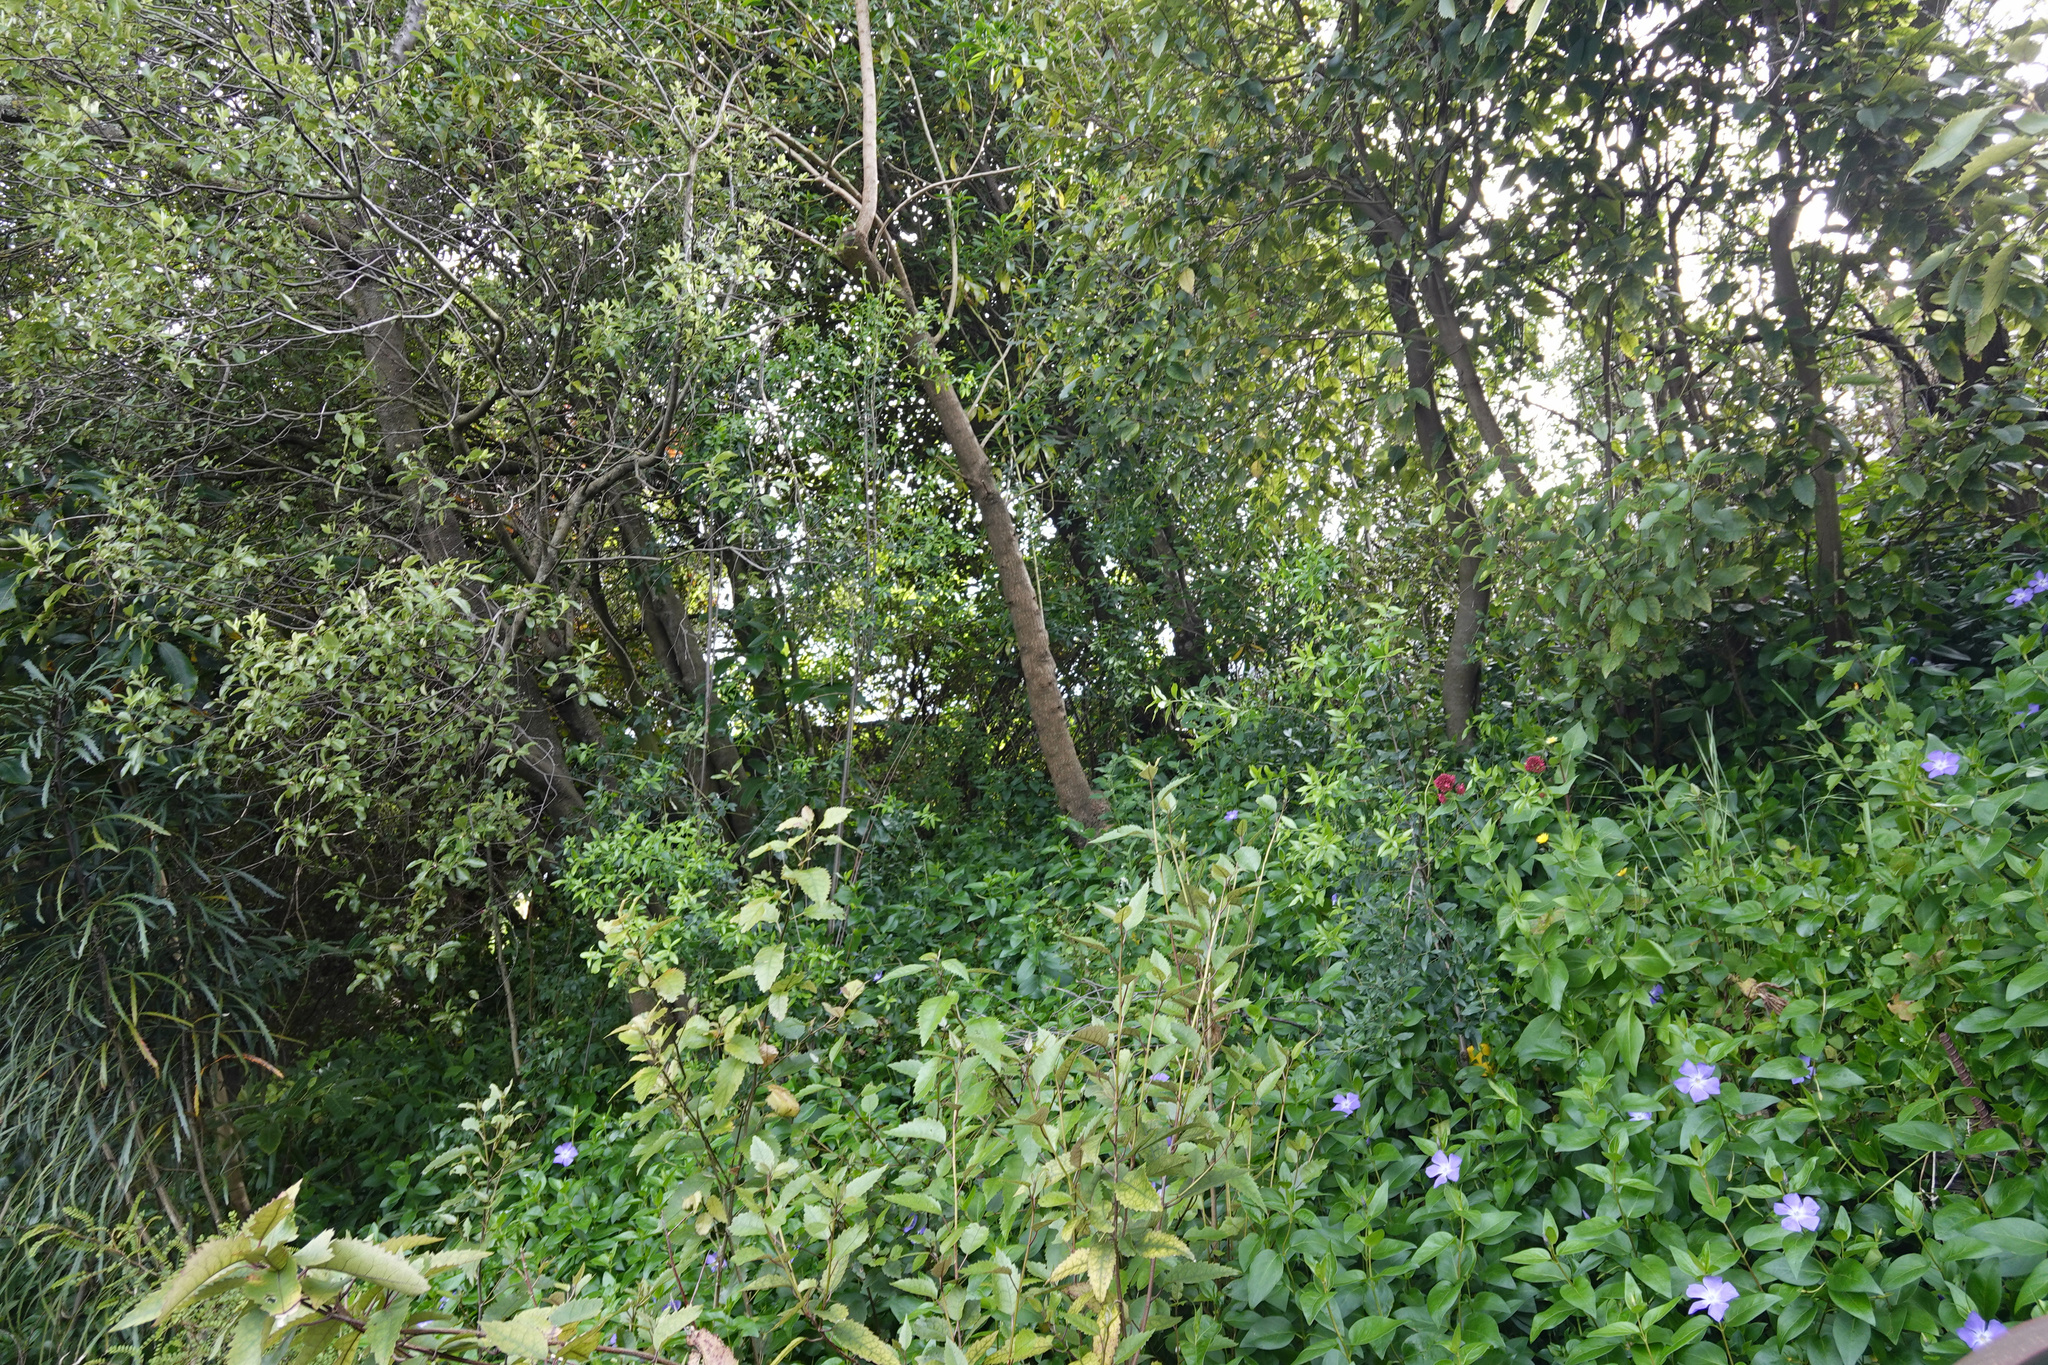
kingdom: Plantae
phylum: Tracheophyta
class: Magnoliopsida
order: Celastrales
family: Celastraceae
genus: Maytenus
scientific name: Maytenus boaria
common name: Mayten
